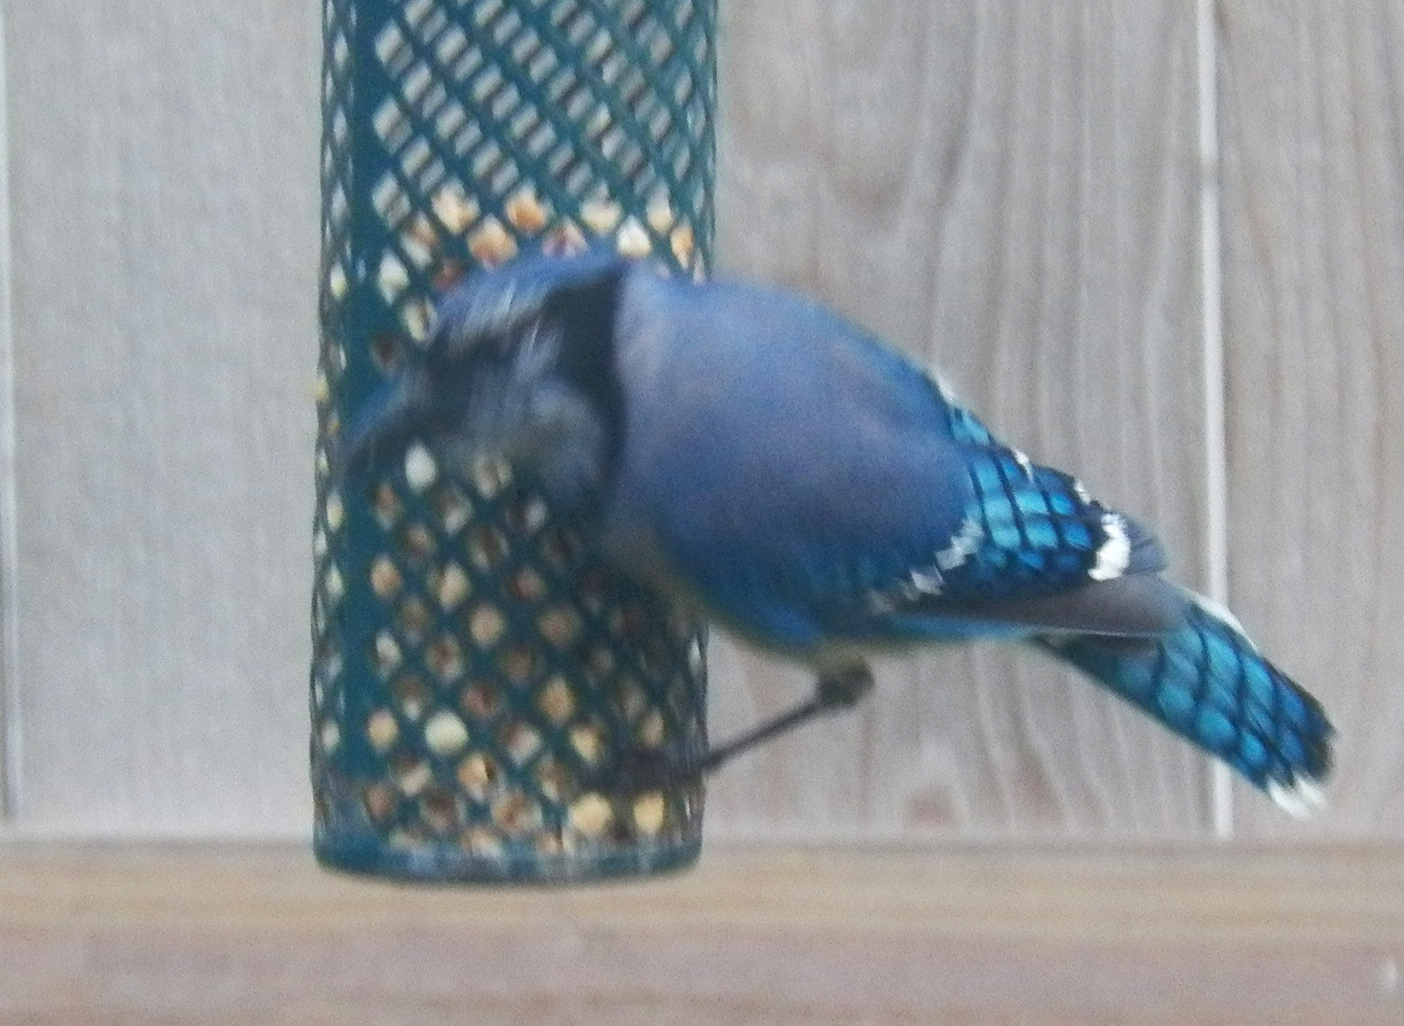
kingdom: Animalia
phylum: Chordata
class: Aves
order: Passeriformes
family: Corvidae
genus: Cyanocitta
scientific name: Cyanocitta cristata
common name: Blue jay
